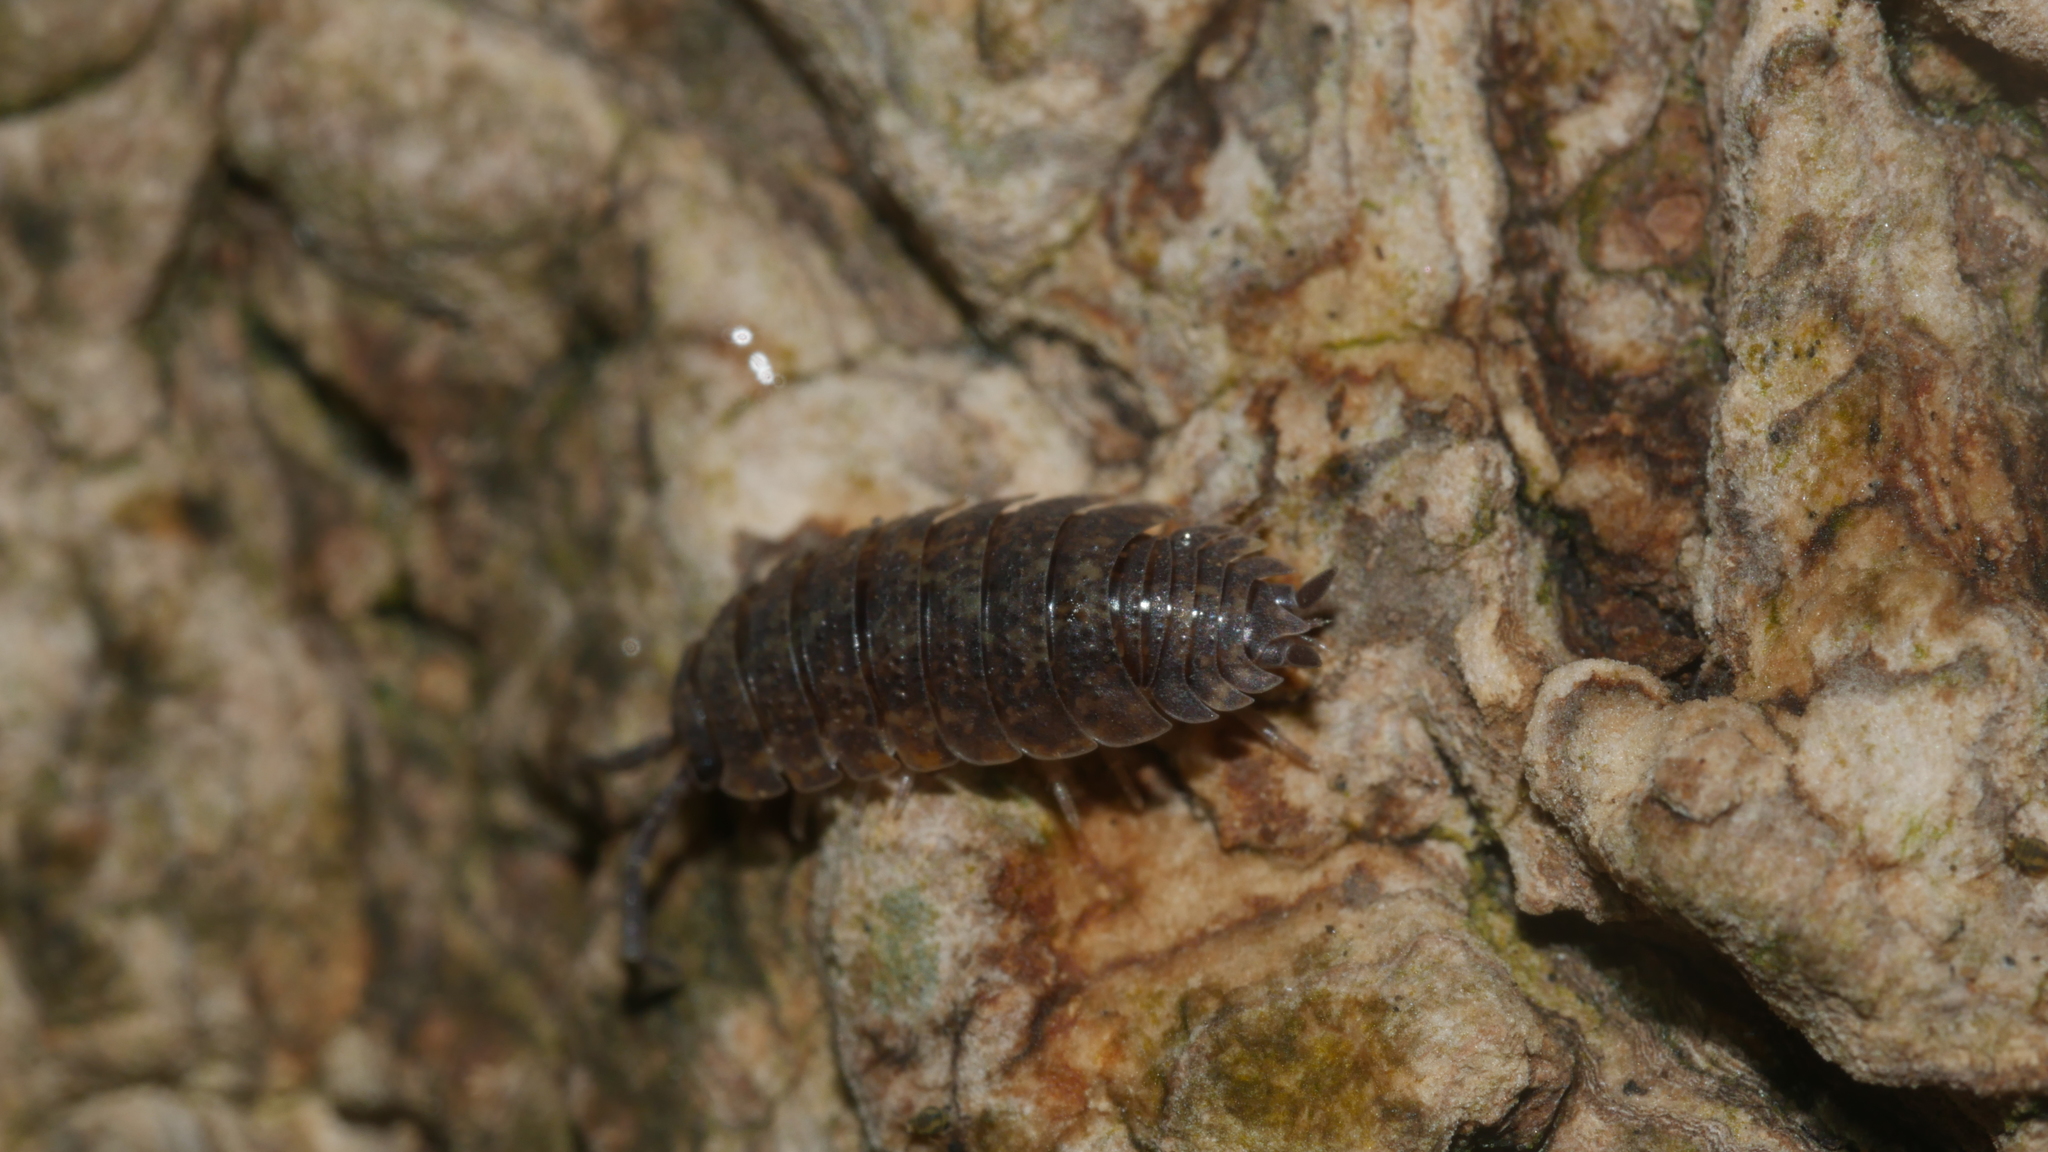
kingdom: Animalia
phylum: Arthropoda
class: Malacostraca
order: Isopoda
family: Porcellionidae
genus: Porcellio
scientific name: Porcellio scaber
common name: Common rough woodlouse
